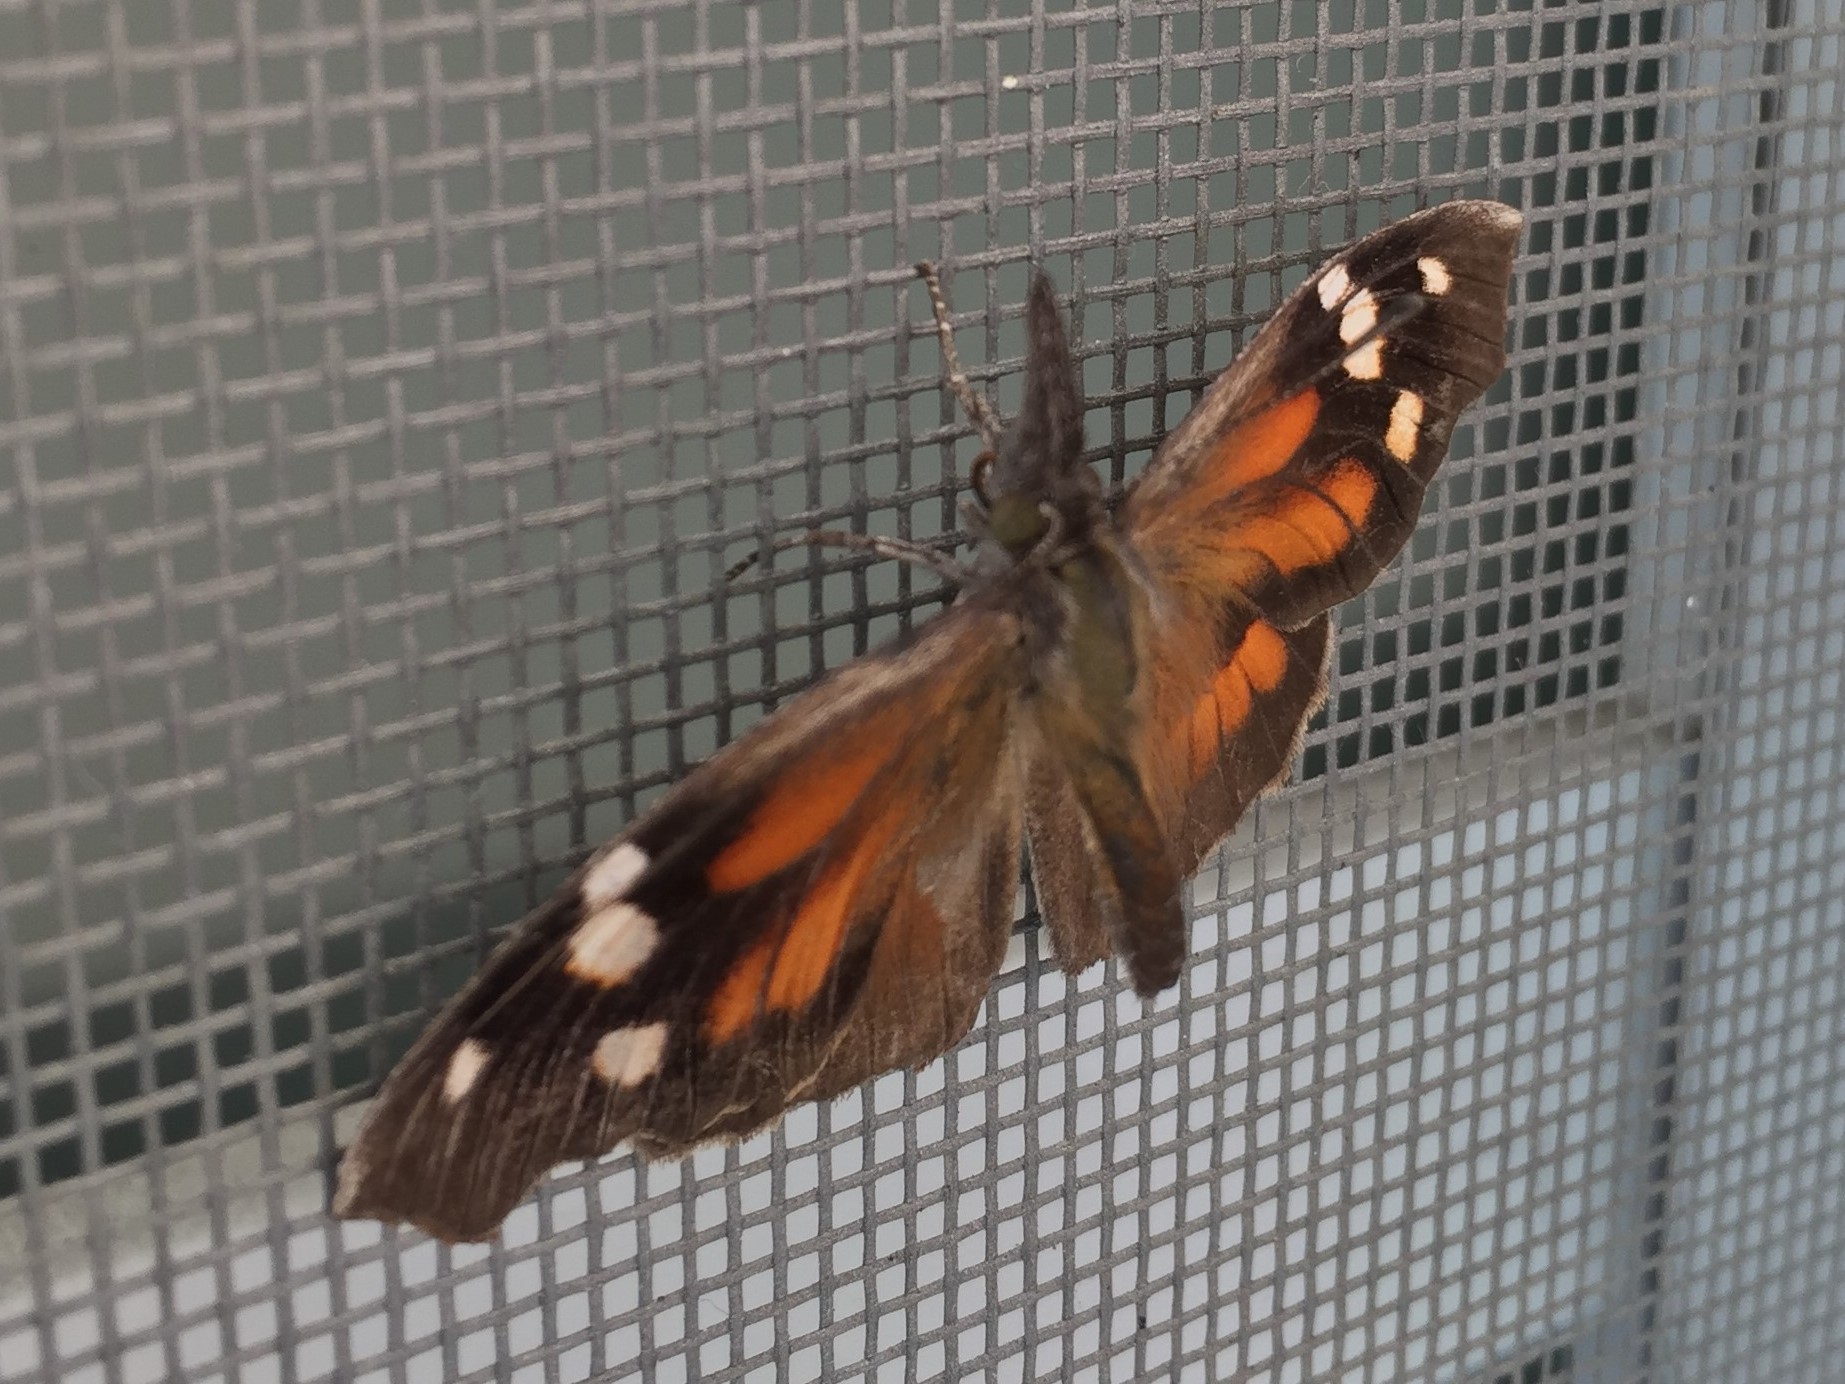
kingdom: Animalia
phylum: Arthropoda
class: Insecta
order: Lepidoptera
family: Nymphalidae
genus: Libytheana
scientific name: Libytheana carinenta
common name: American snout
